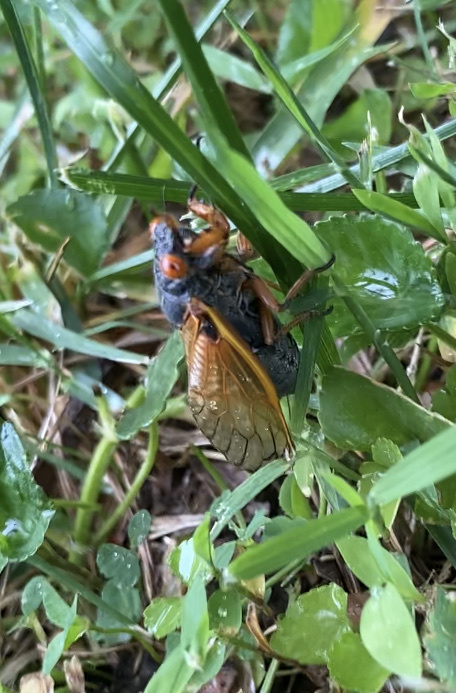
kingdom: Animalia
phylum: Arthropoda
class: Insecta
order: Hemiptera
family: Cicadidae
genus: Magicicada
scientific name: Magicicada cassini
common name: Cassin's 17-year cicada
